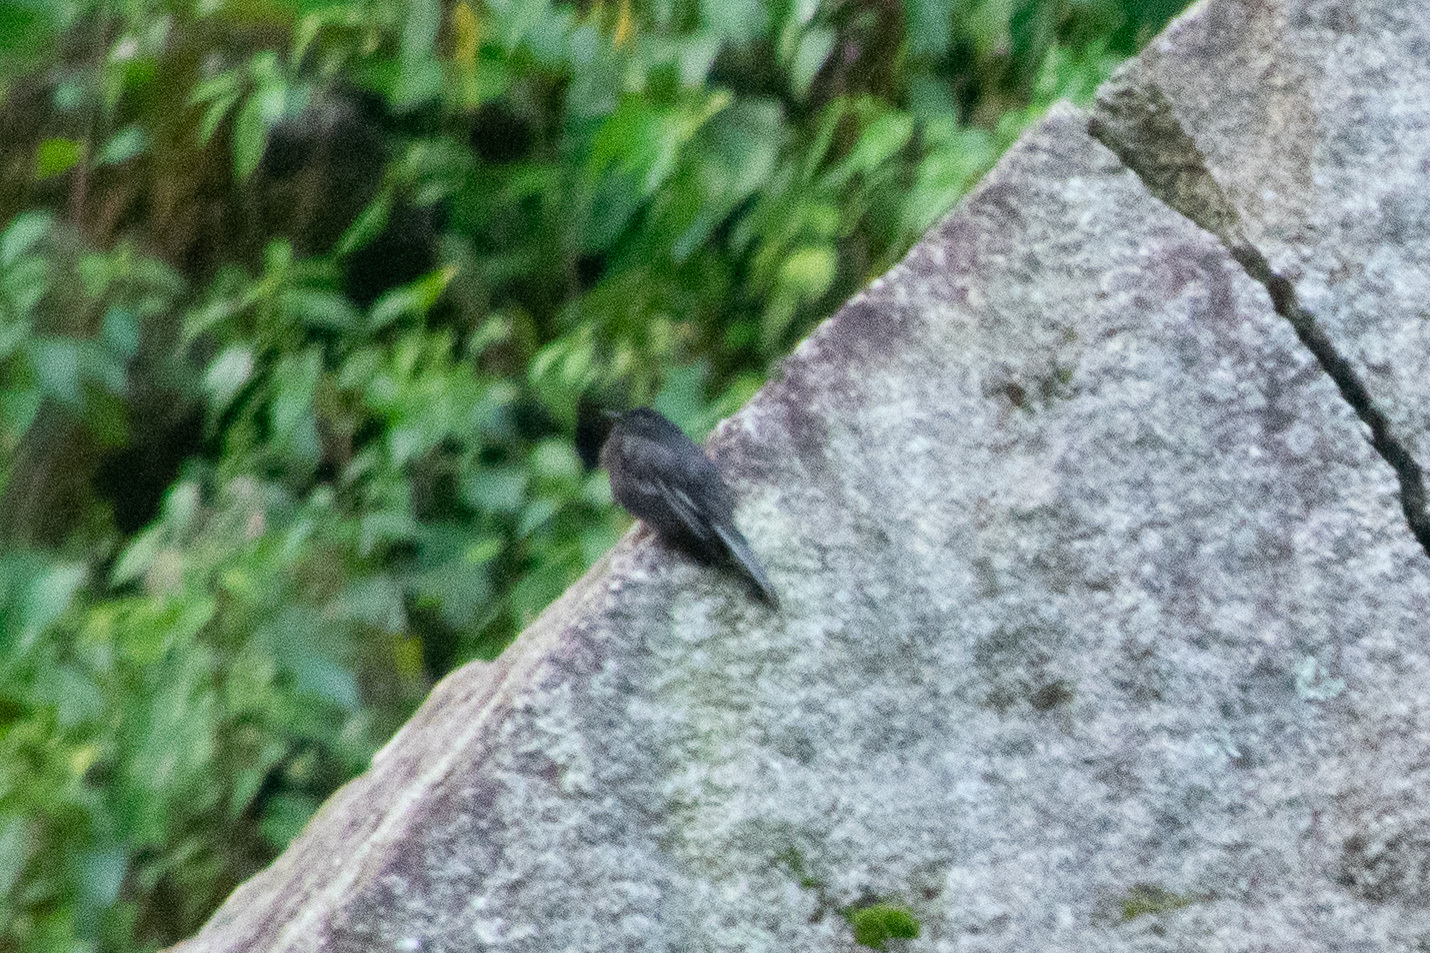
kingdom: Animalia
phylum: Chordata
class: Aves
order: Passeriformes
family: Tyrannidae
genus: Sayornis
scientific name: Sayornis nigricans
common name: Black phoebe
